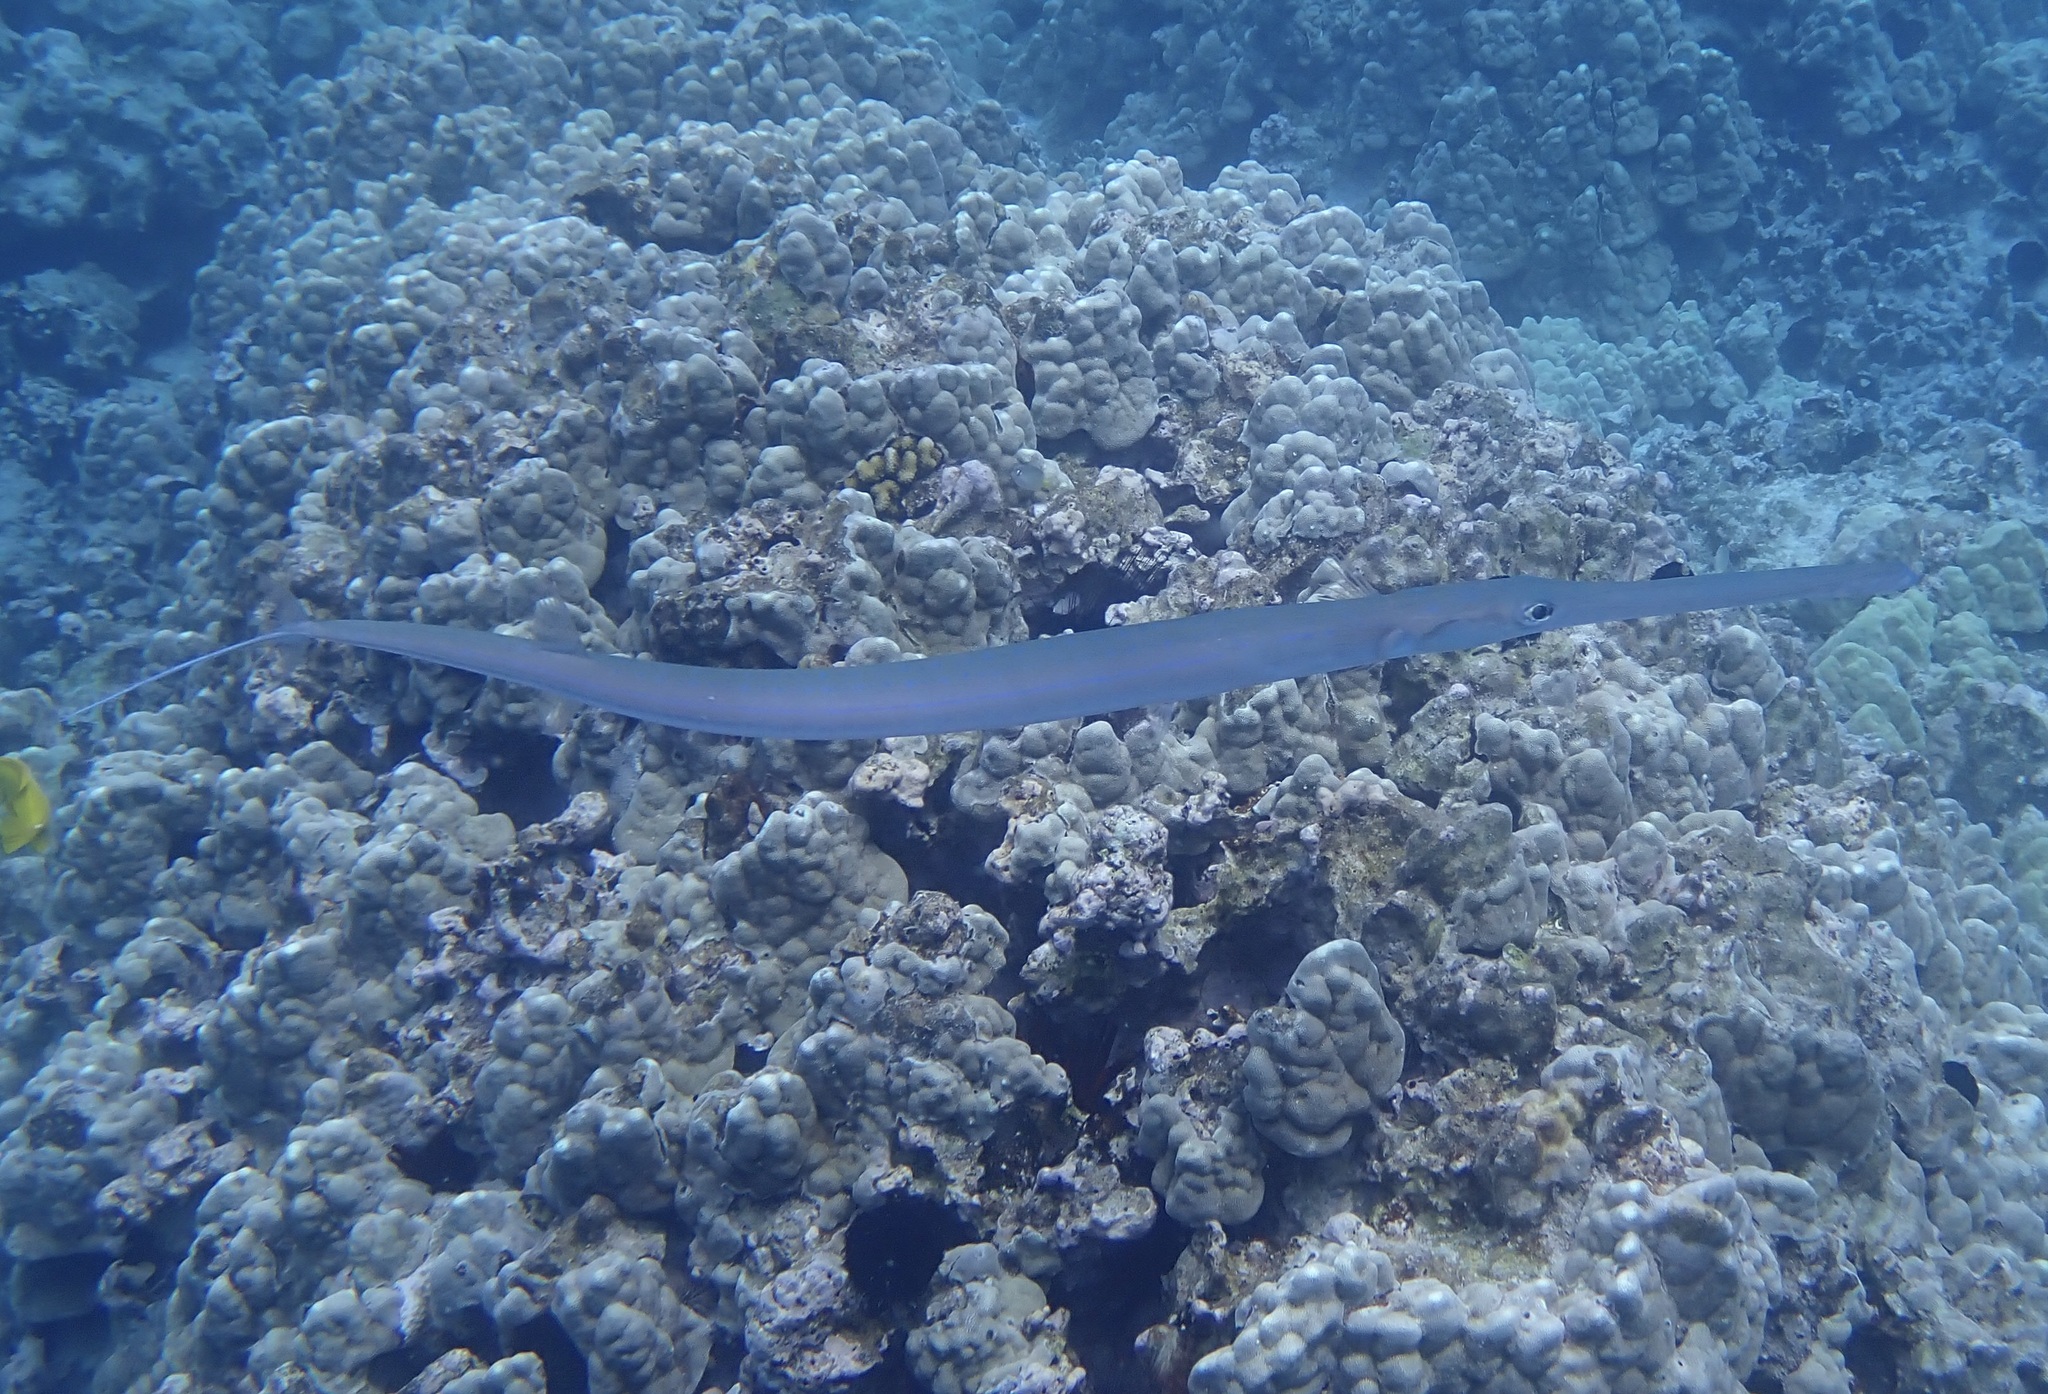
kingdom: Animalia
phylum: Chordata
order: Syngnathiformes
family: Fistulariidae
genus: Fistularia
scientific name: Fistularia commersonii
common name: Bluespotted cornetfish
